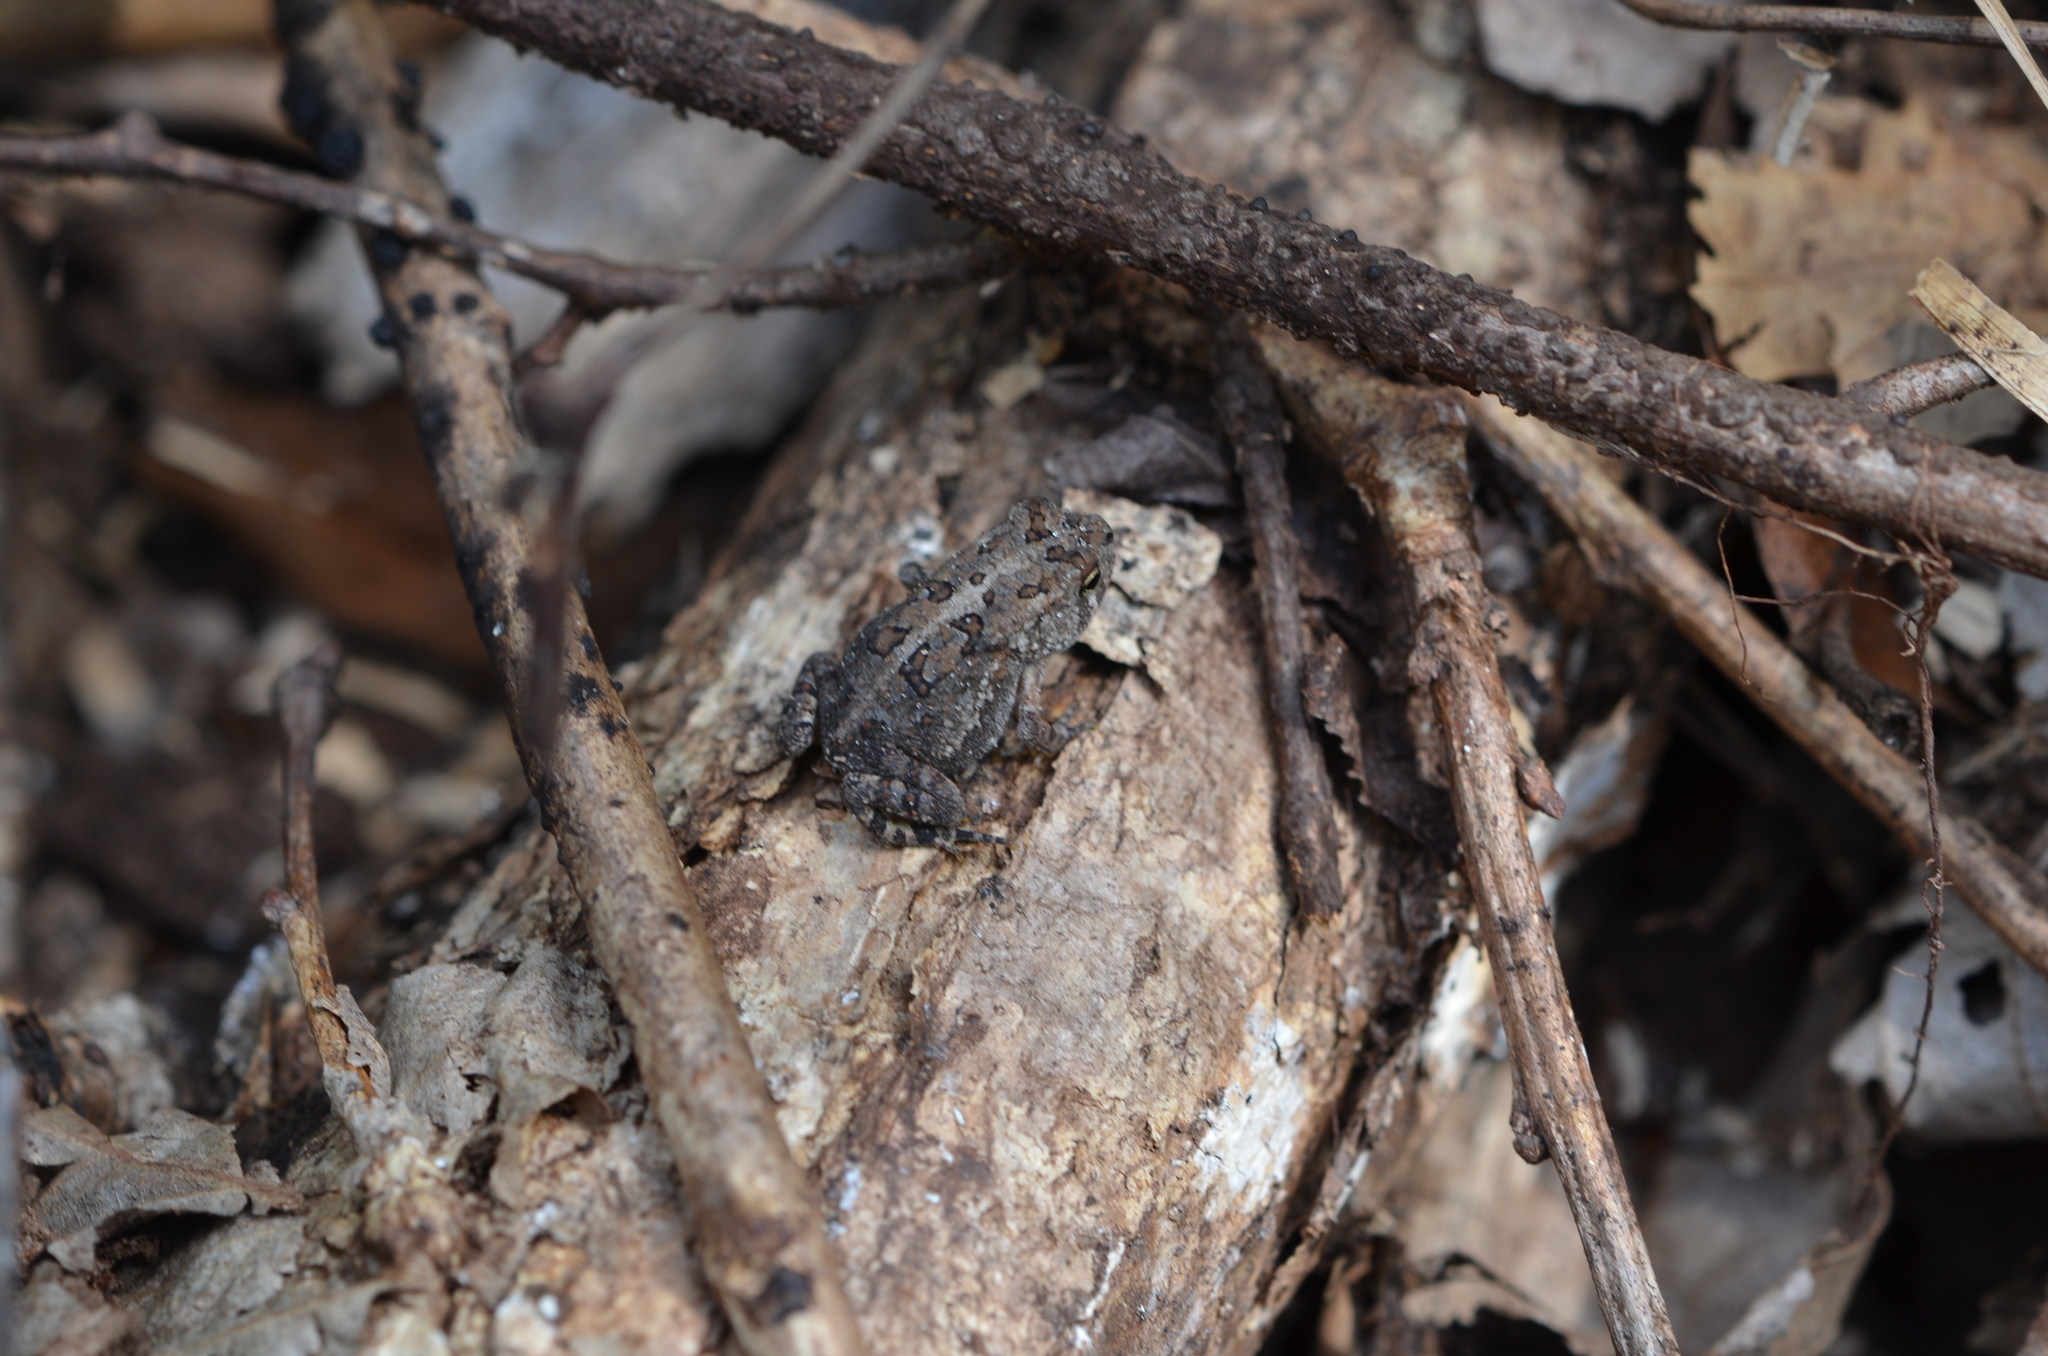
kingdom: Animalia
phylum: Chordata
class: Amphibia
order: Anura
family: Bufonidae
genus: Anaxyrus
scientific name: Anaxyrus terrestris
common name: Southern toad
